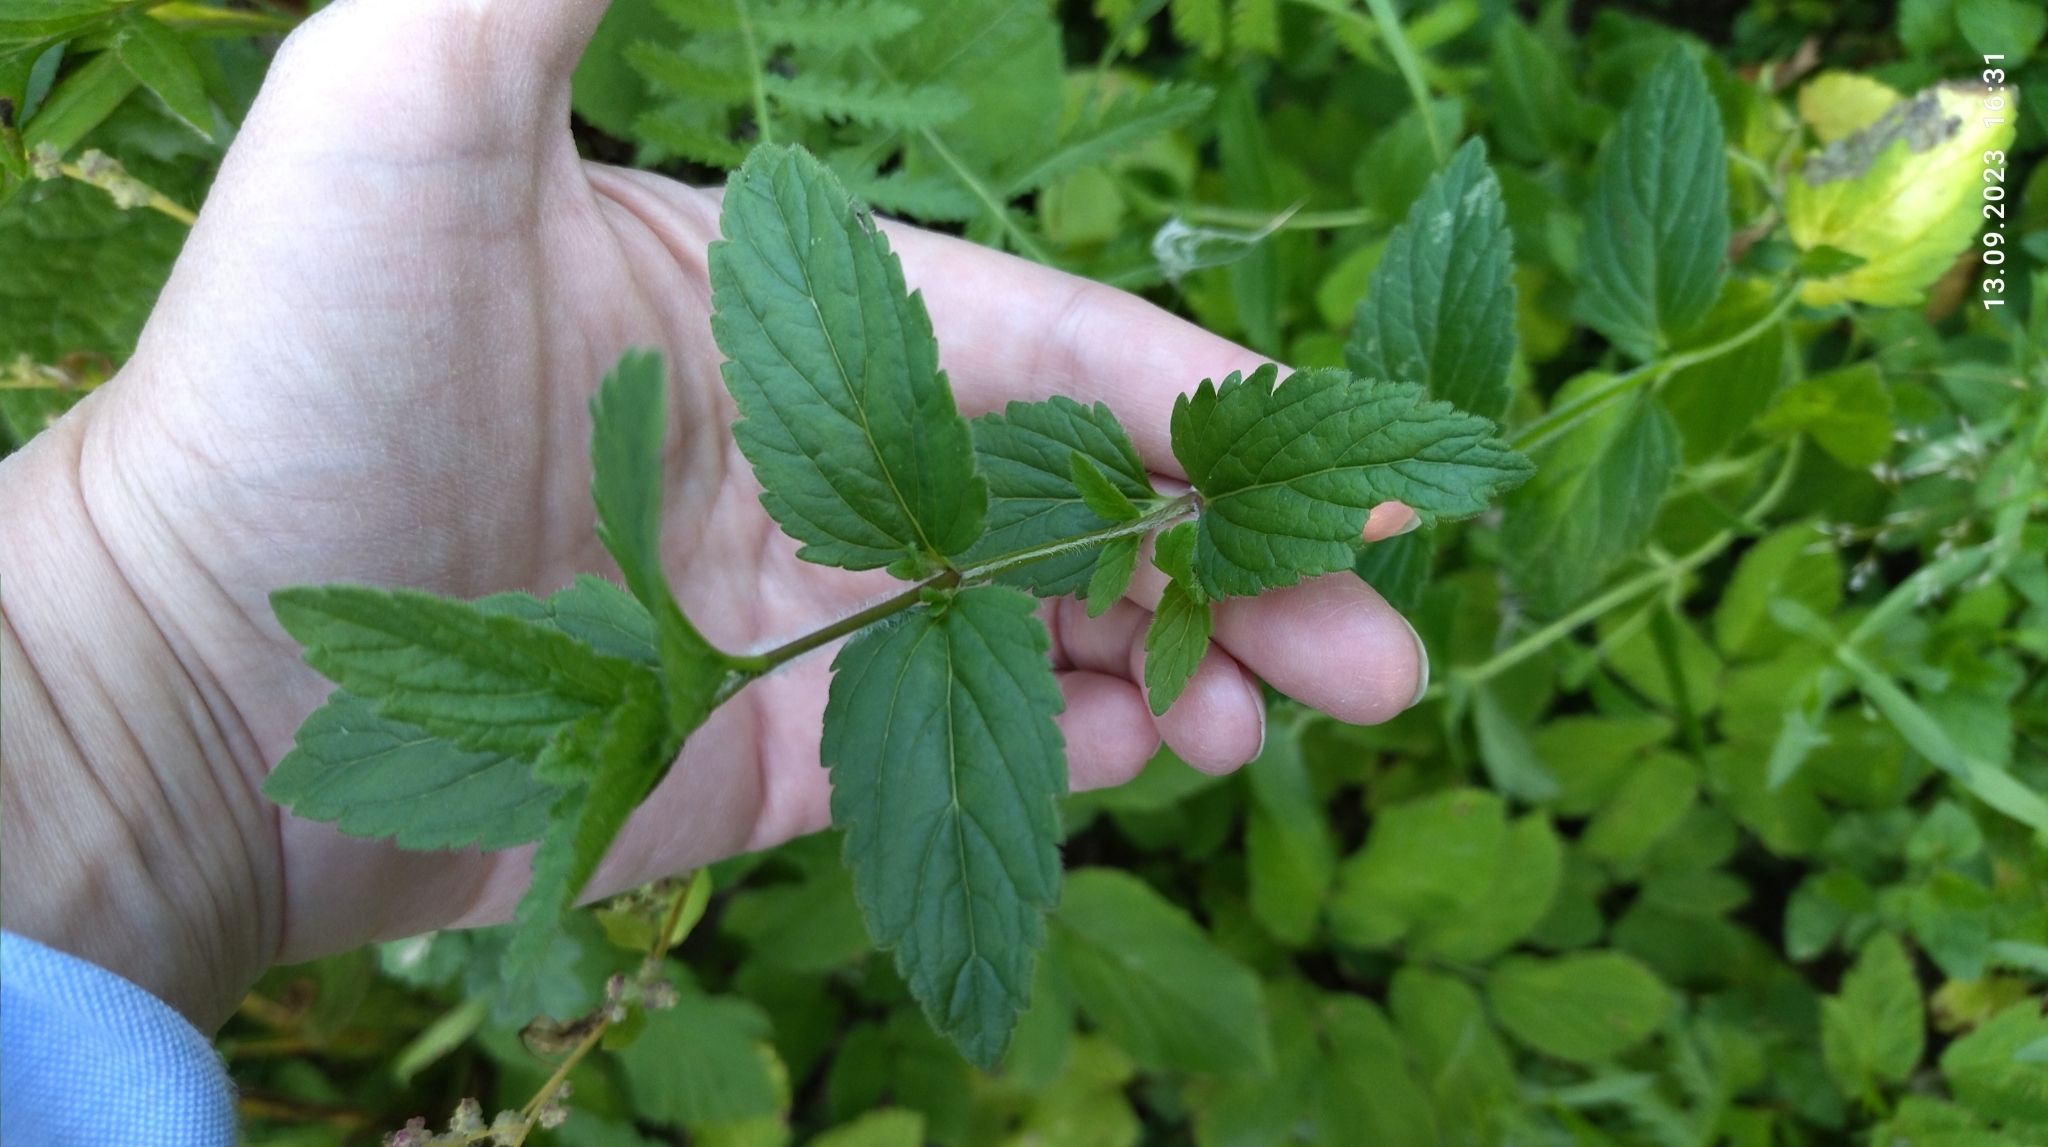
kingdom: Plantae
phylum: Tracheophyta
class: Magnoliopsida
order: Lamiales
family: Plantaginaceae
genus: Veronica
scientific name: Veronica chamaedrys
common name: Germander speedwell
